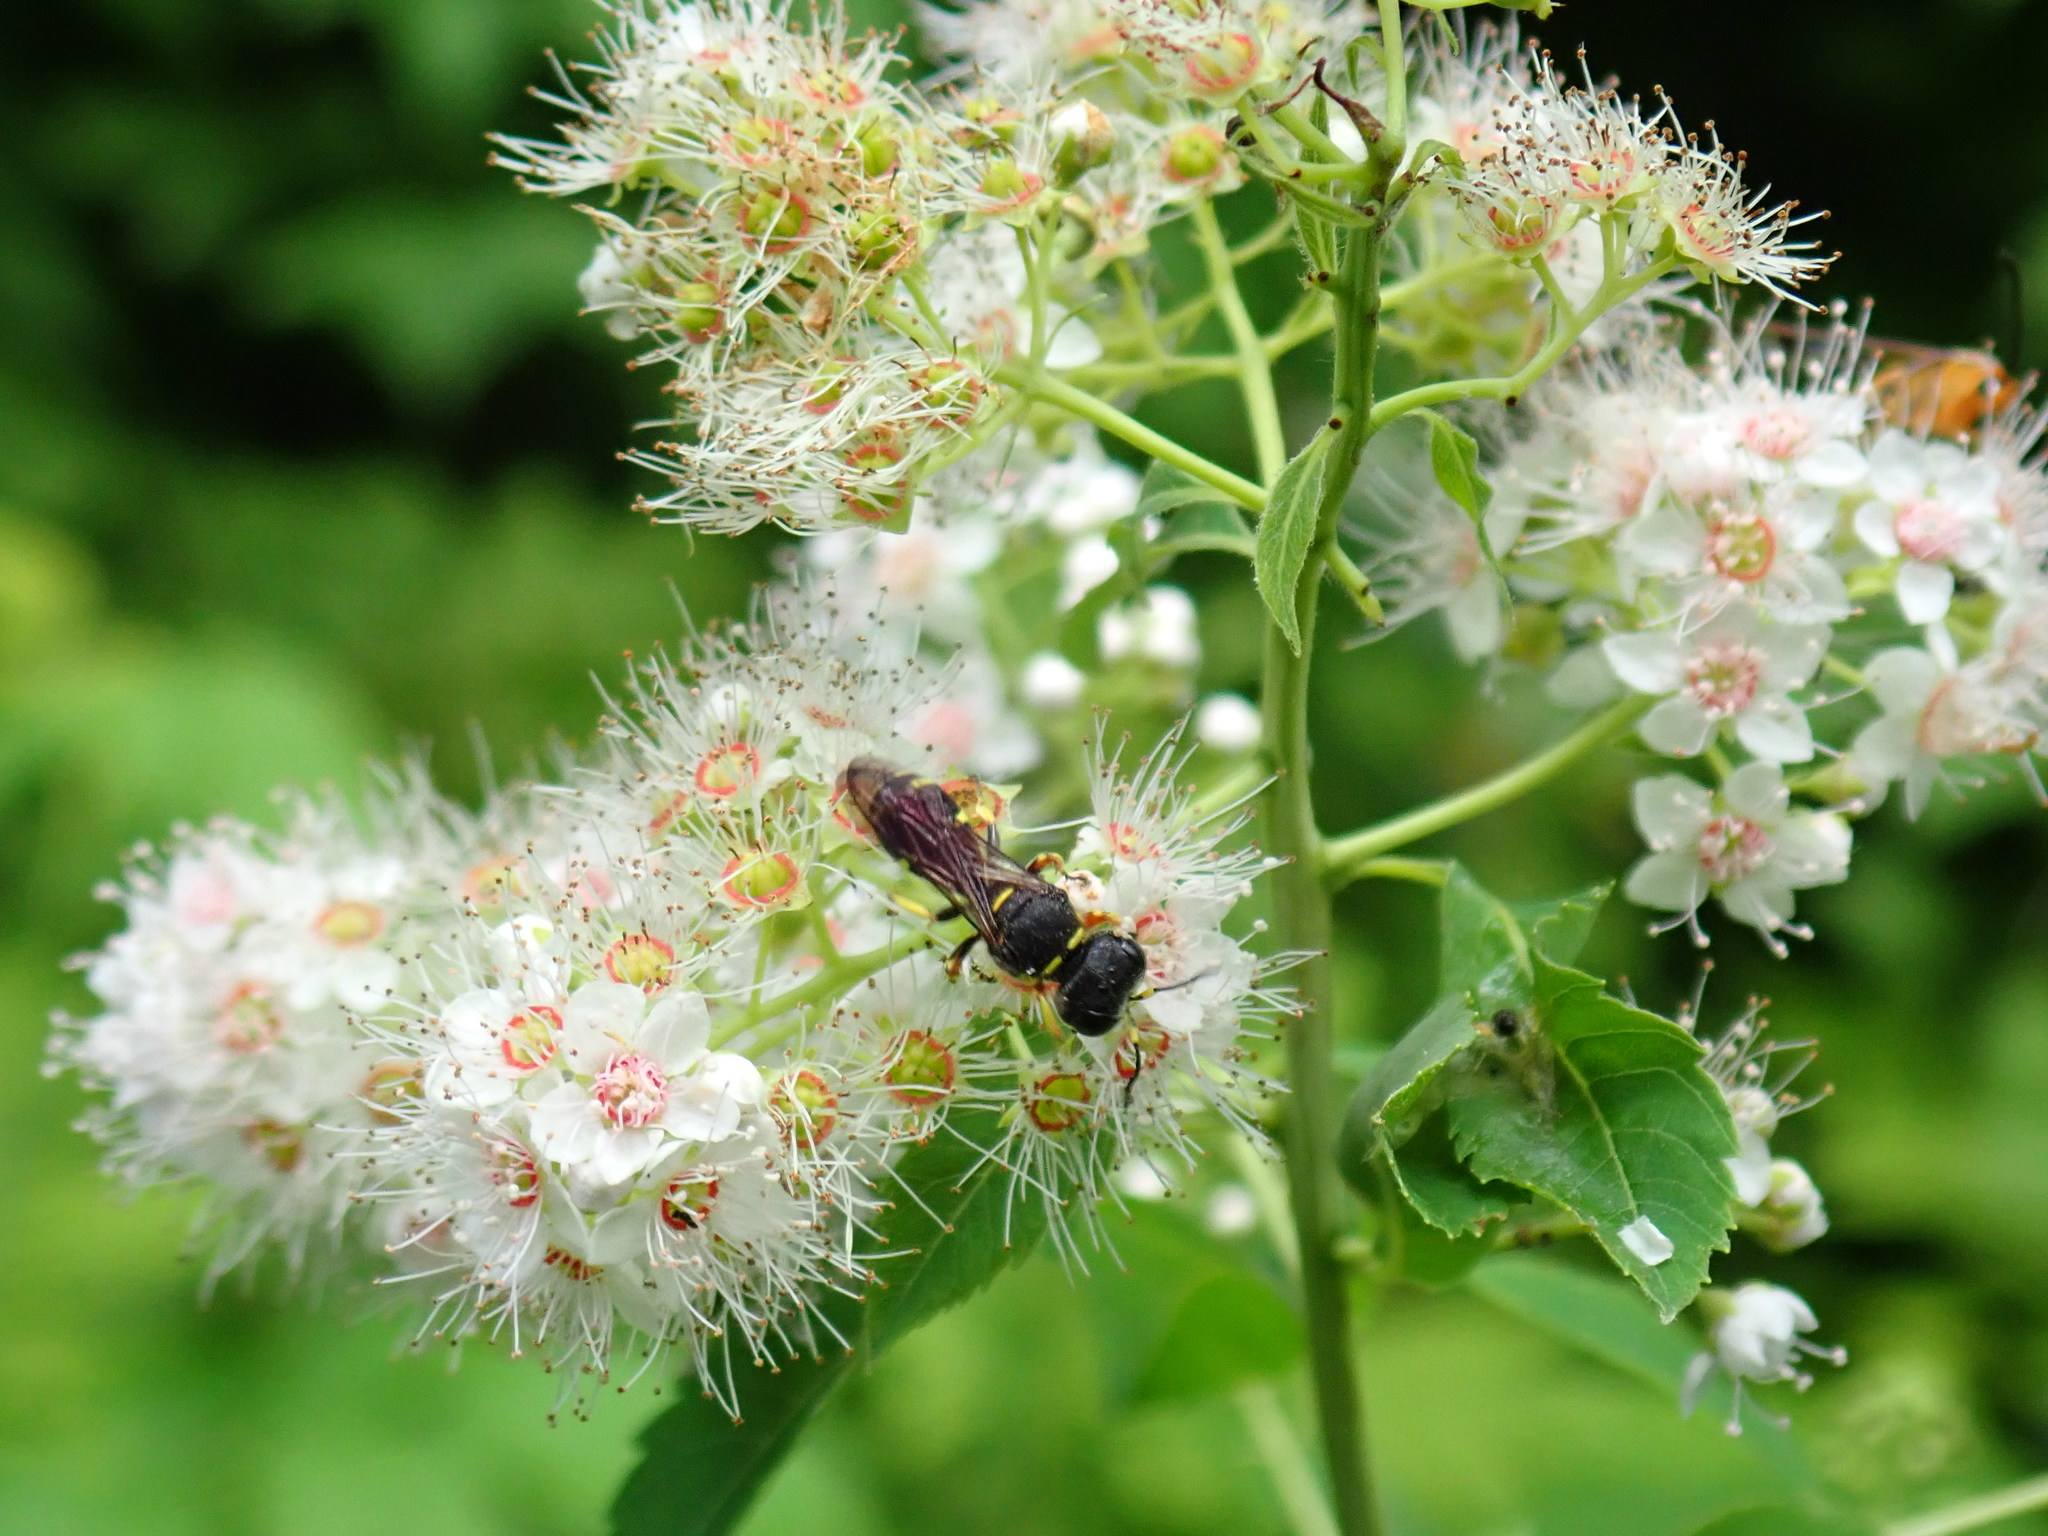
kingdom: Animalia
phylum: Arthropoda
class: Insecta
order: Hymenoptera
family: Crabronidae
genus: Ectemnius
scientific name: Ectemnius continuus
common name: Common ectemnius
